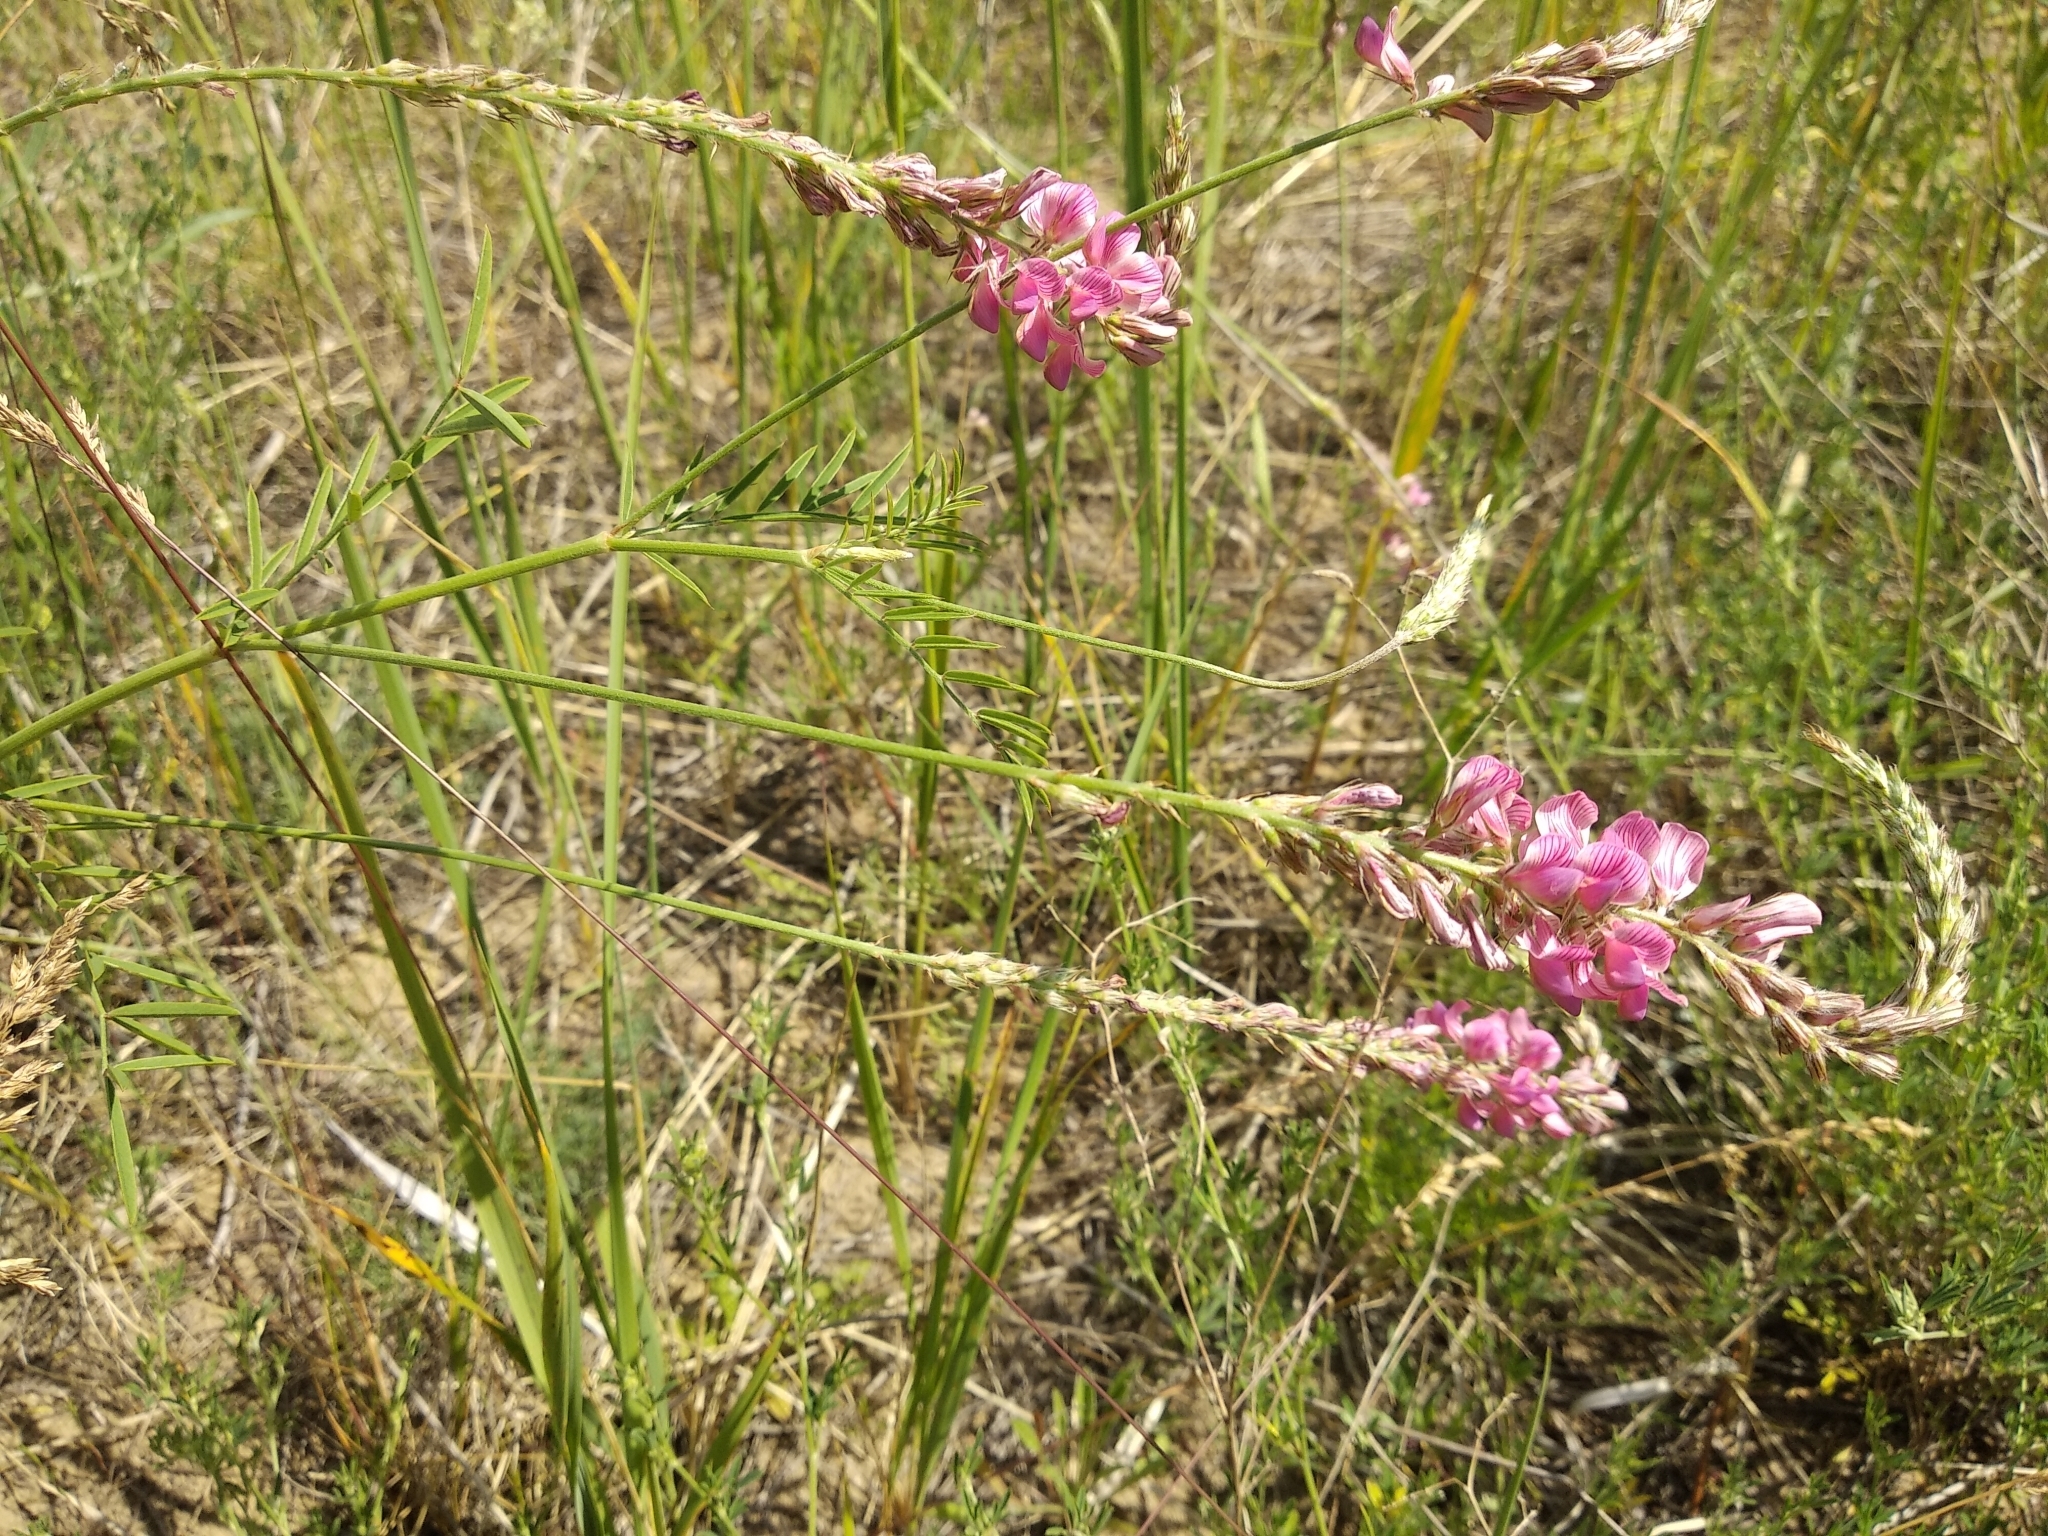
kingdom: Plantae
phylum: Tracheophyta
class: Magnoliopsida
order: Fabales
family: Fabaceae
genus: Onobrychis
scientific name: Onobrychis arenaria
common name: Sand esparcet
